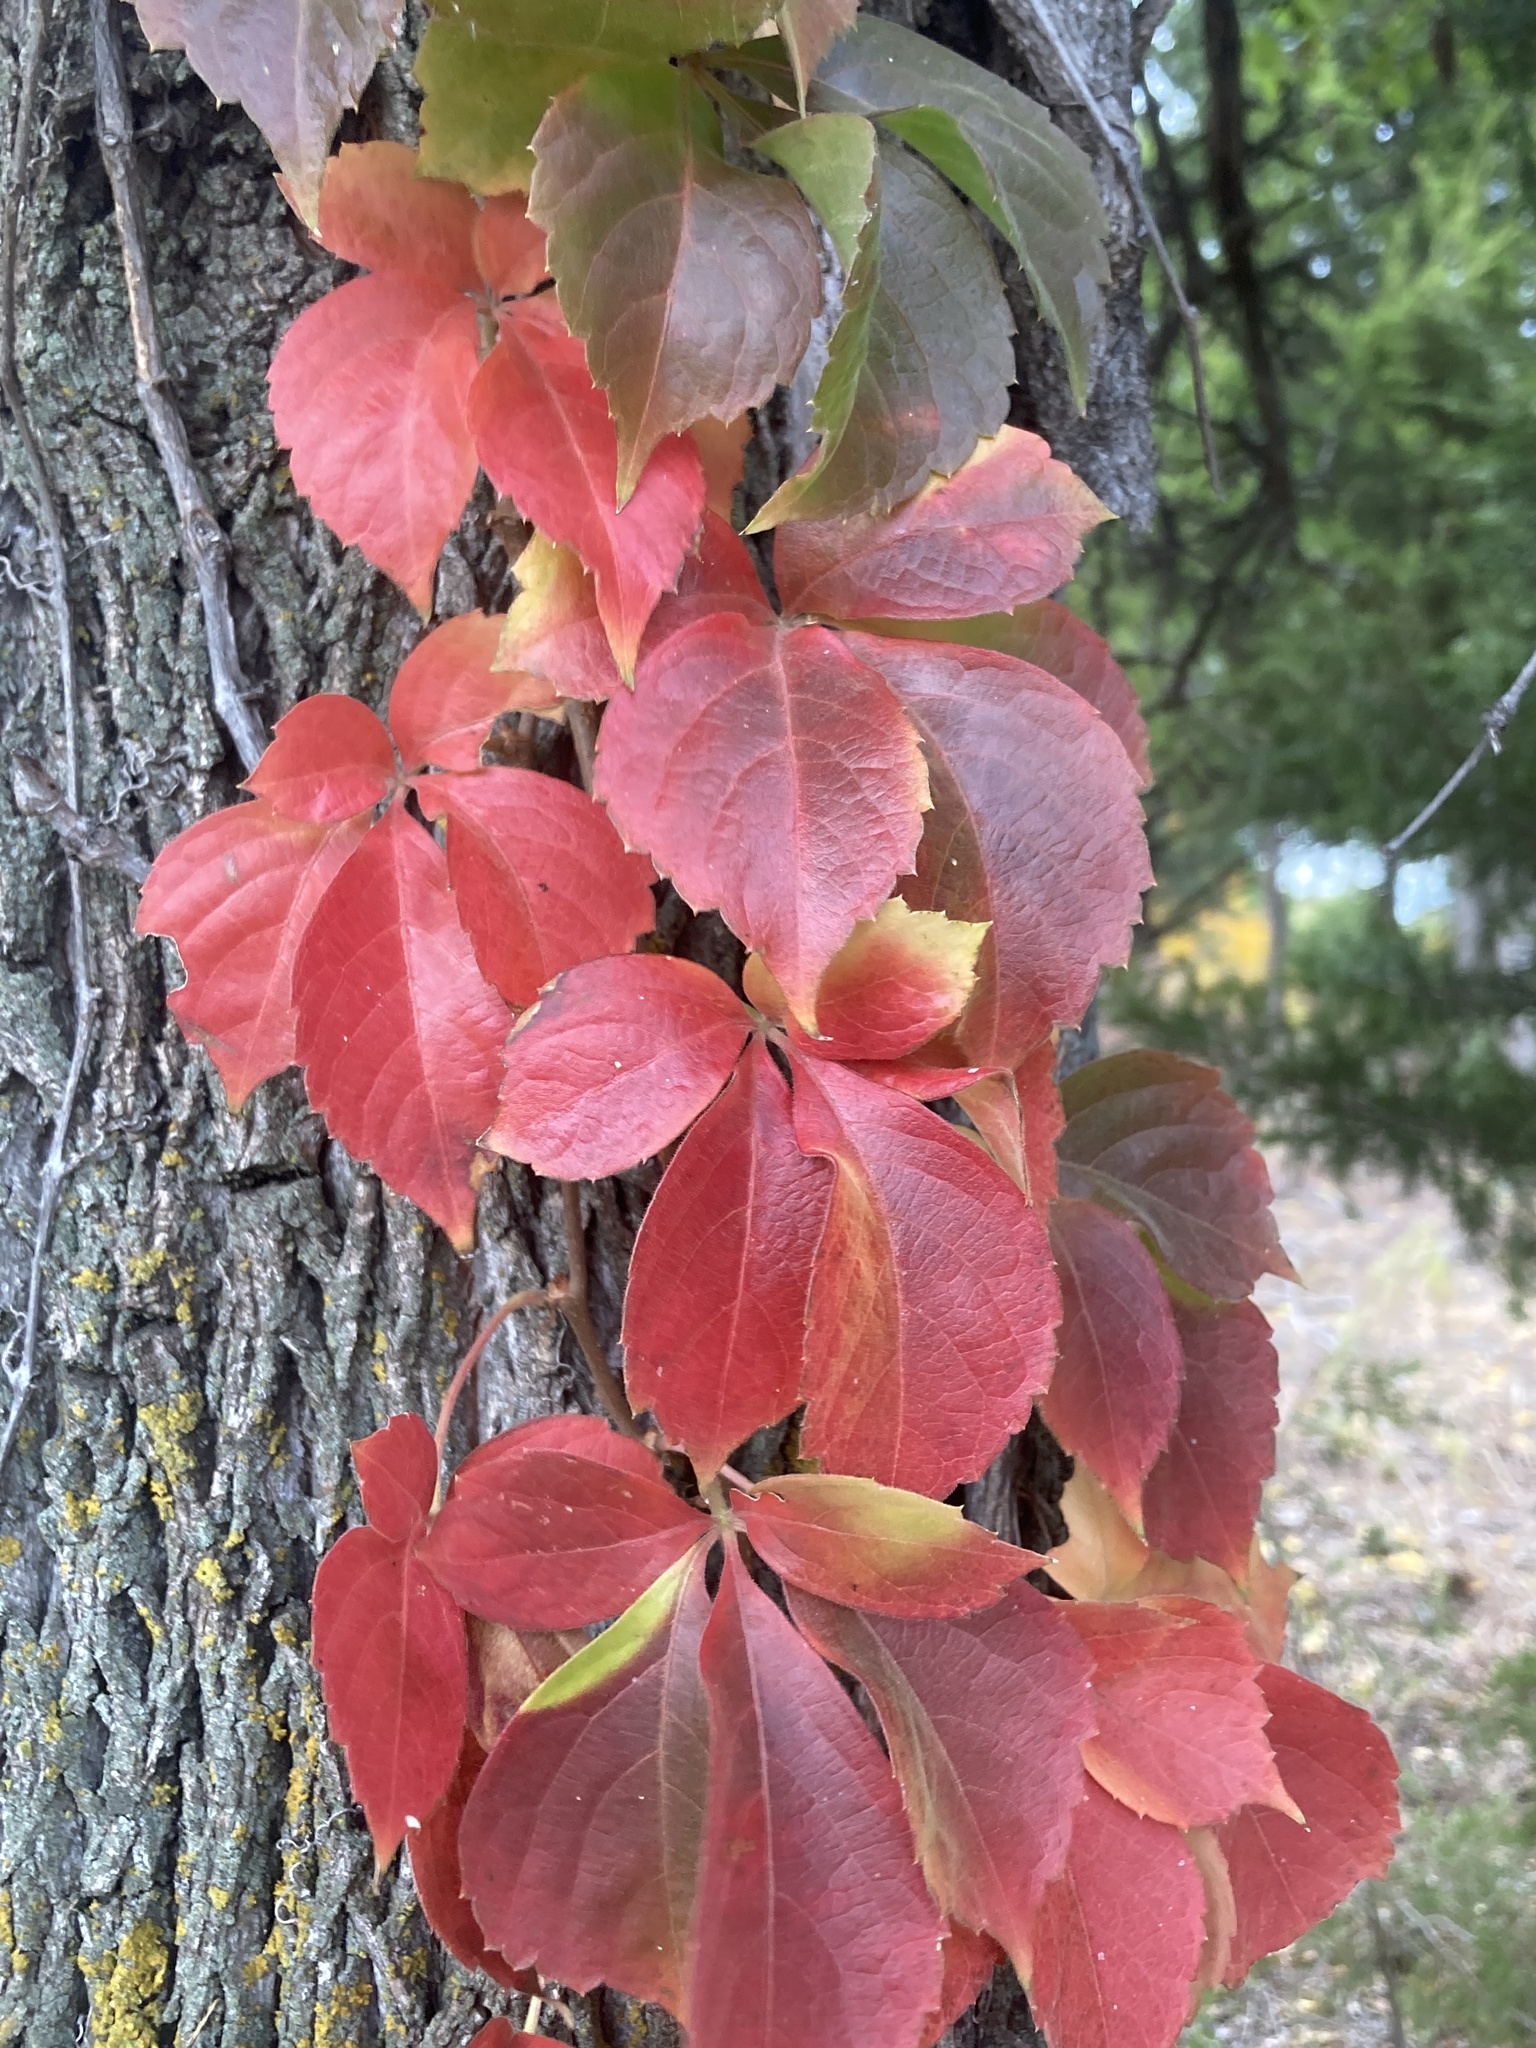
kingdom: Plantae
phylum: Tracheophyta
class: Magnoliopsida
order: Vitales
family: Vitaceae
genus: Parthenocissus
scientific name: Parthenocissus quinquefolia
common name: Virginia-creeper
